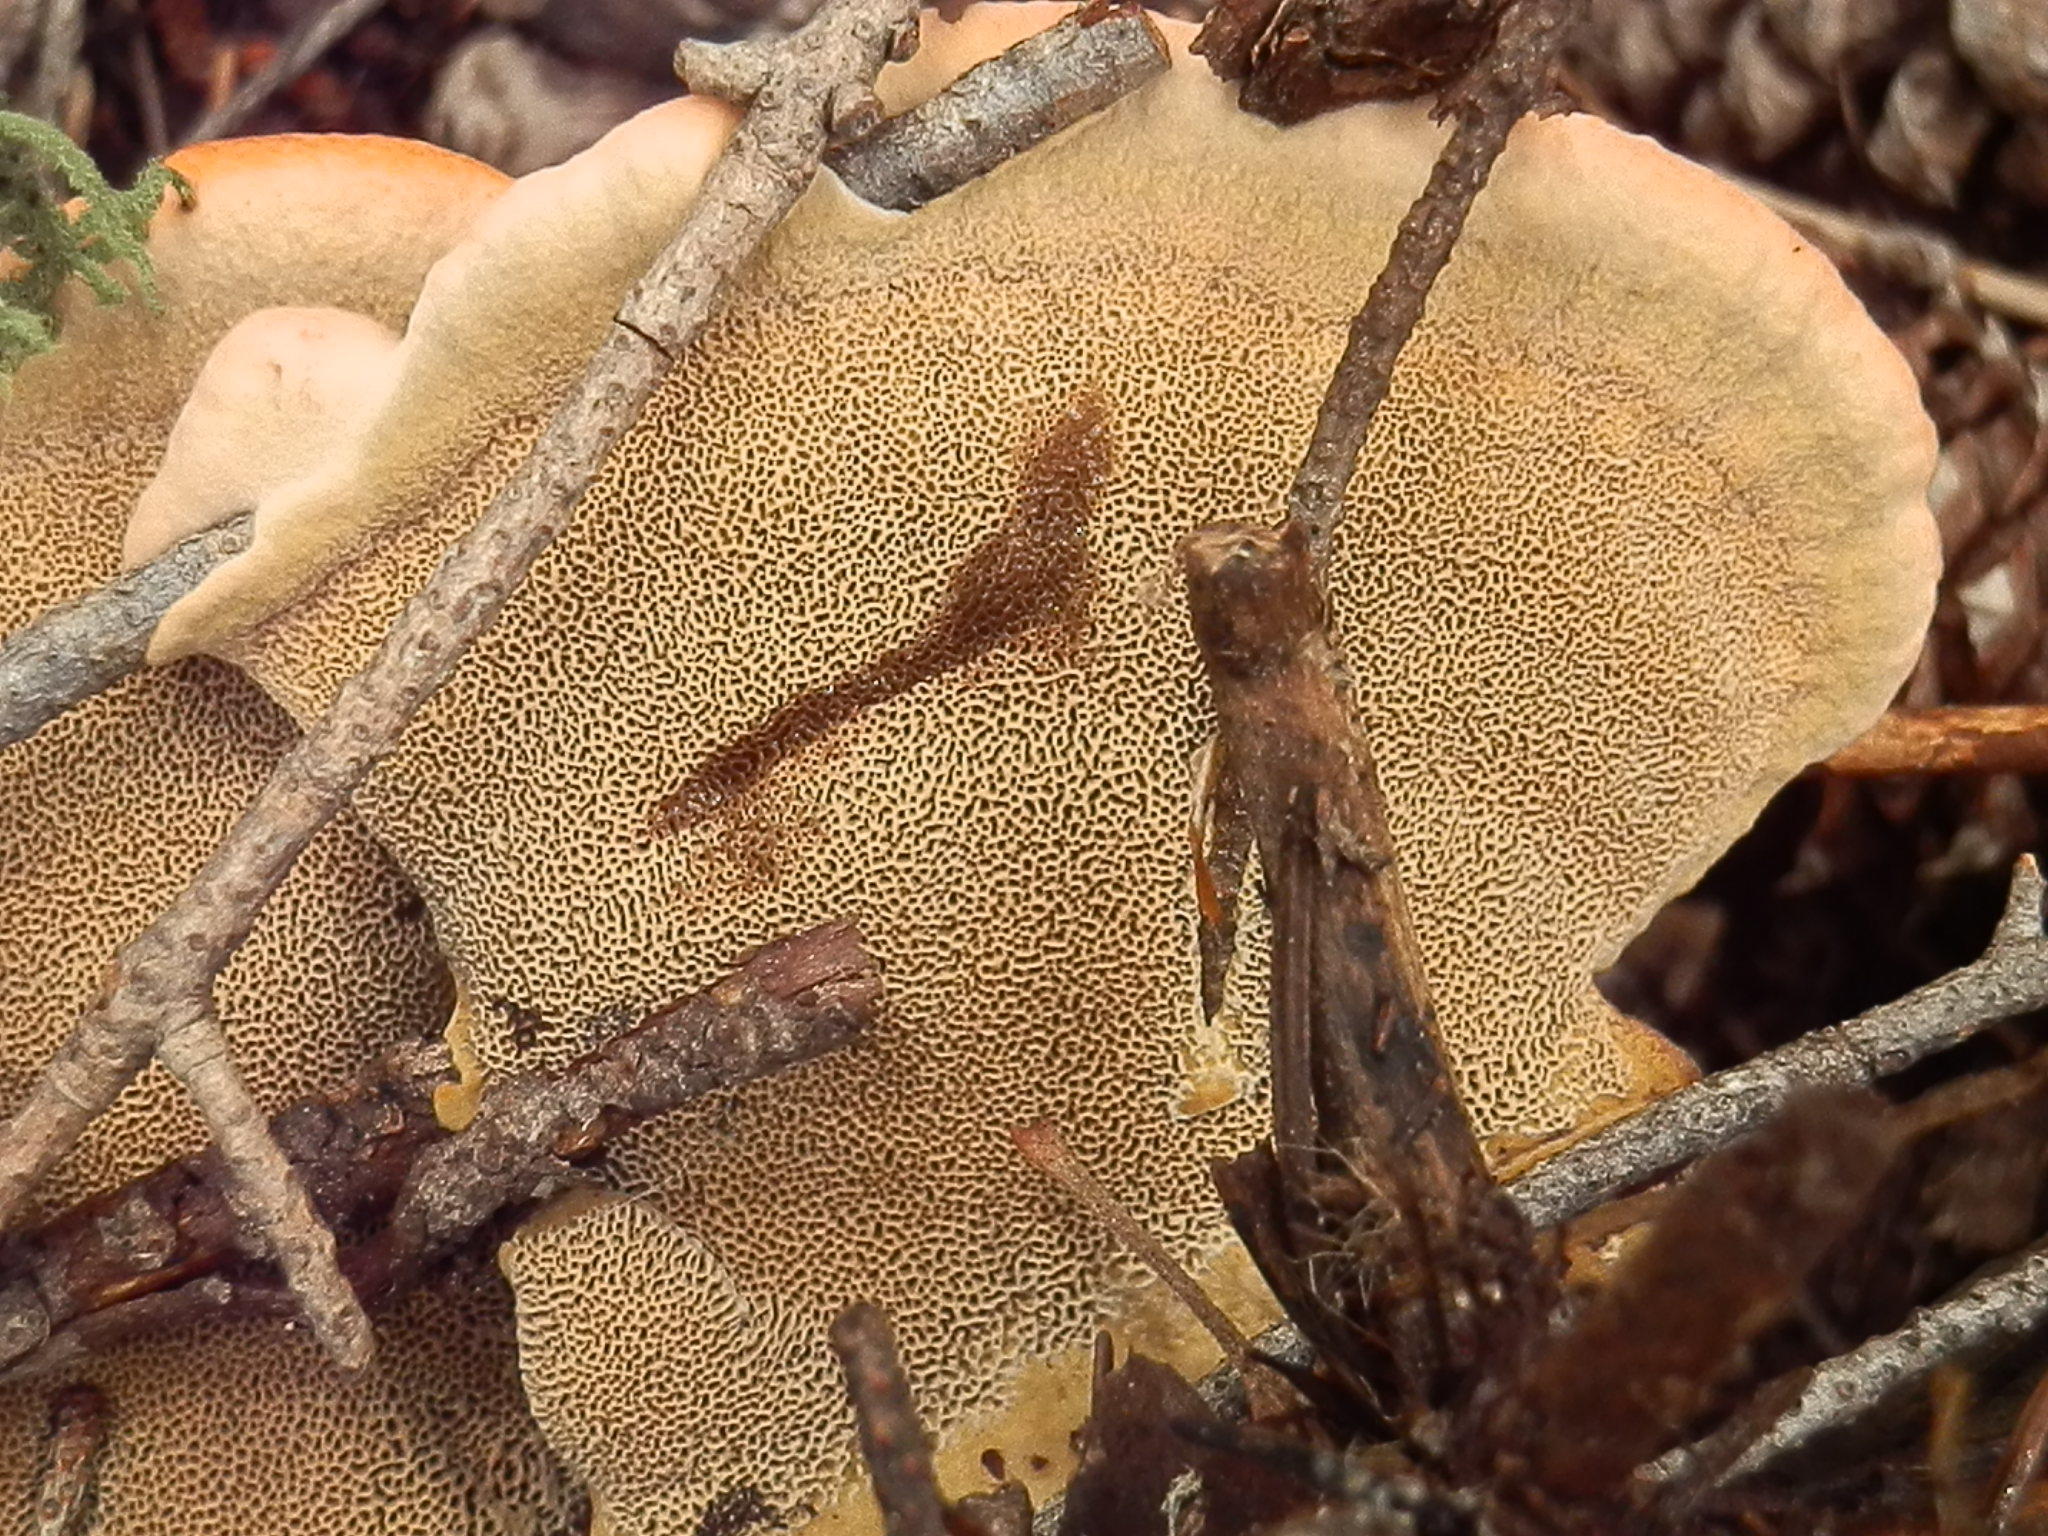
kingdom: Fungi
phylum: Basidiomycota
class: Agaricomycetes
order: Polyporales
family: Laetiporaceae
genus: Phaeolus
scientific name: Phaeolus schweinitzii
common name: Dyer's mazegill
